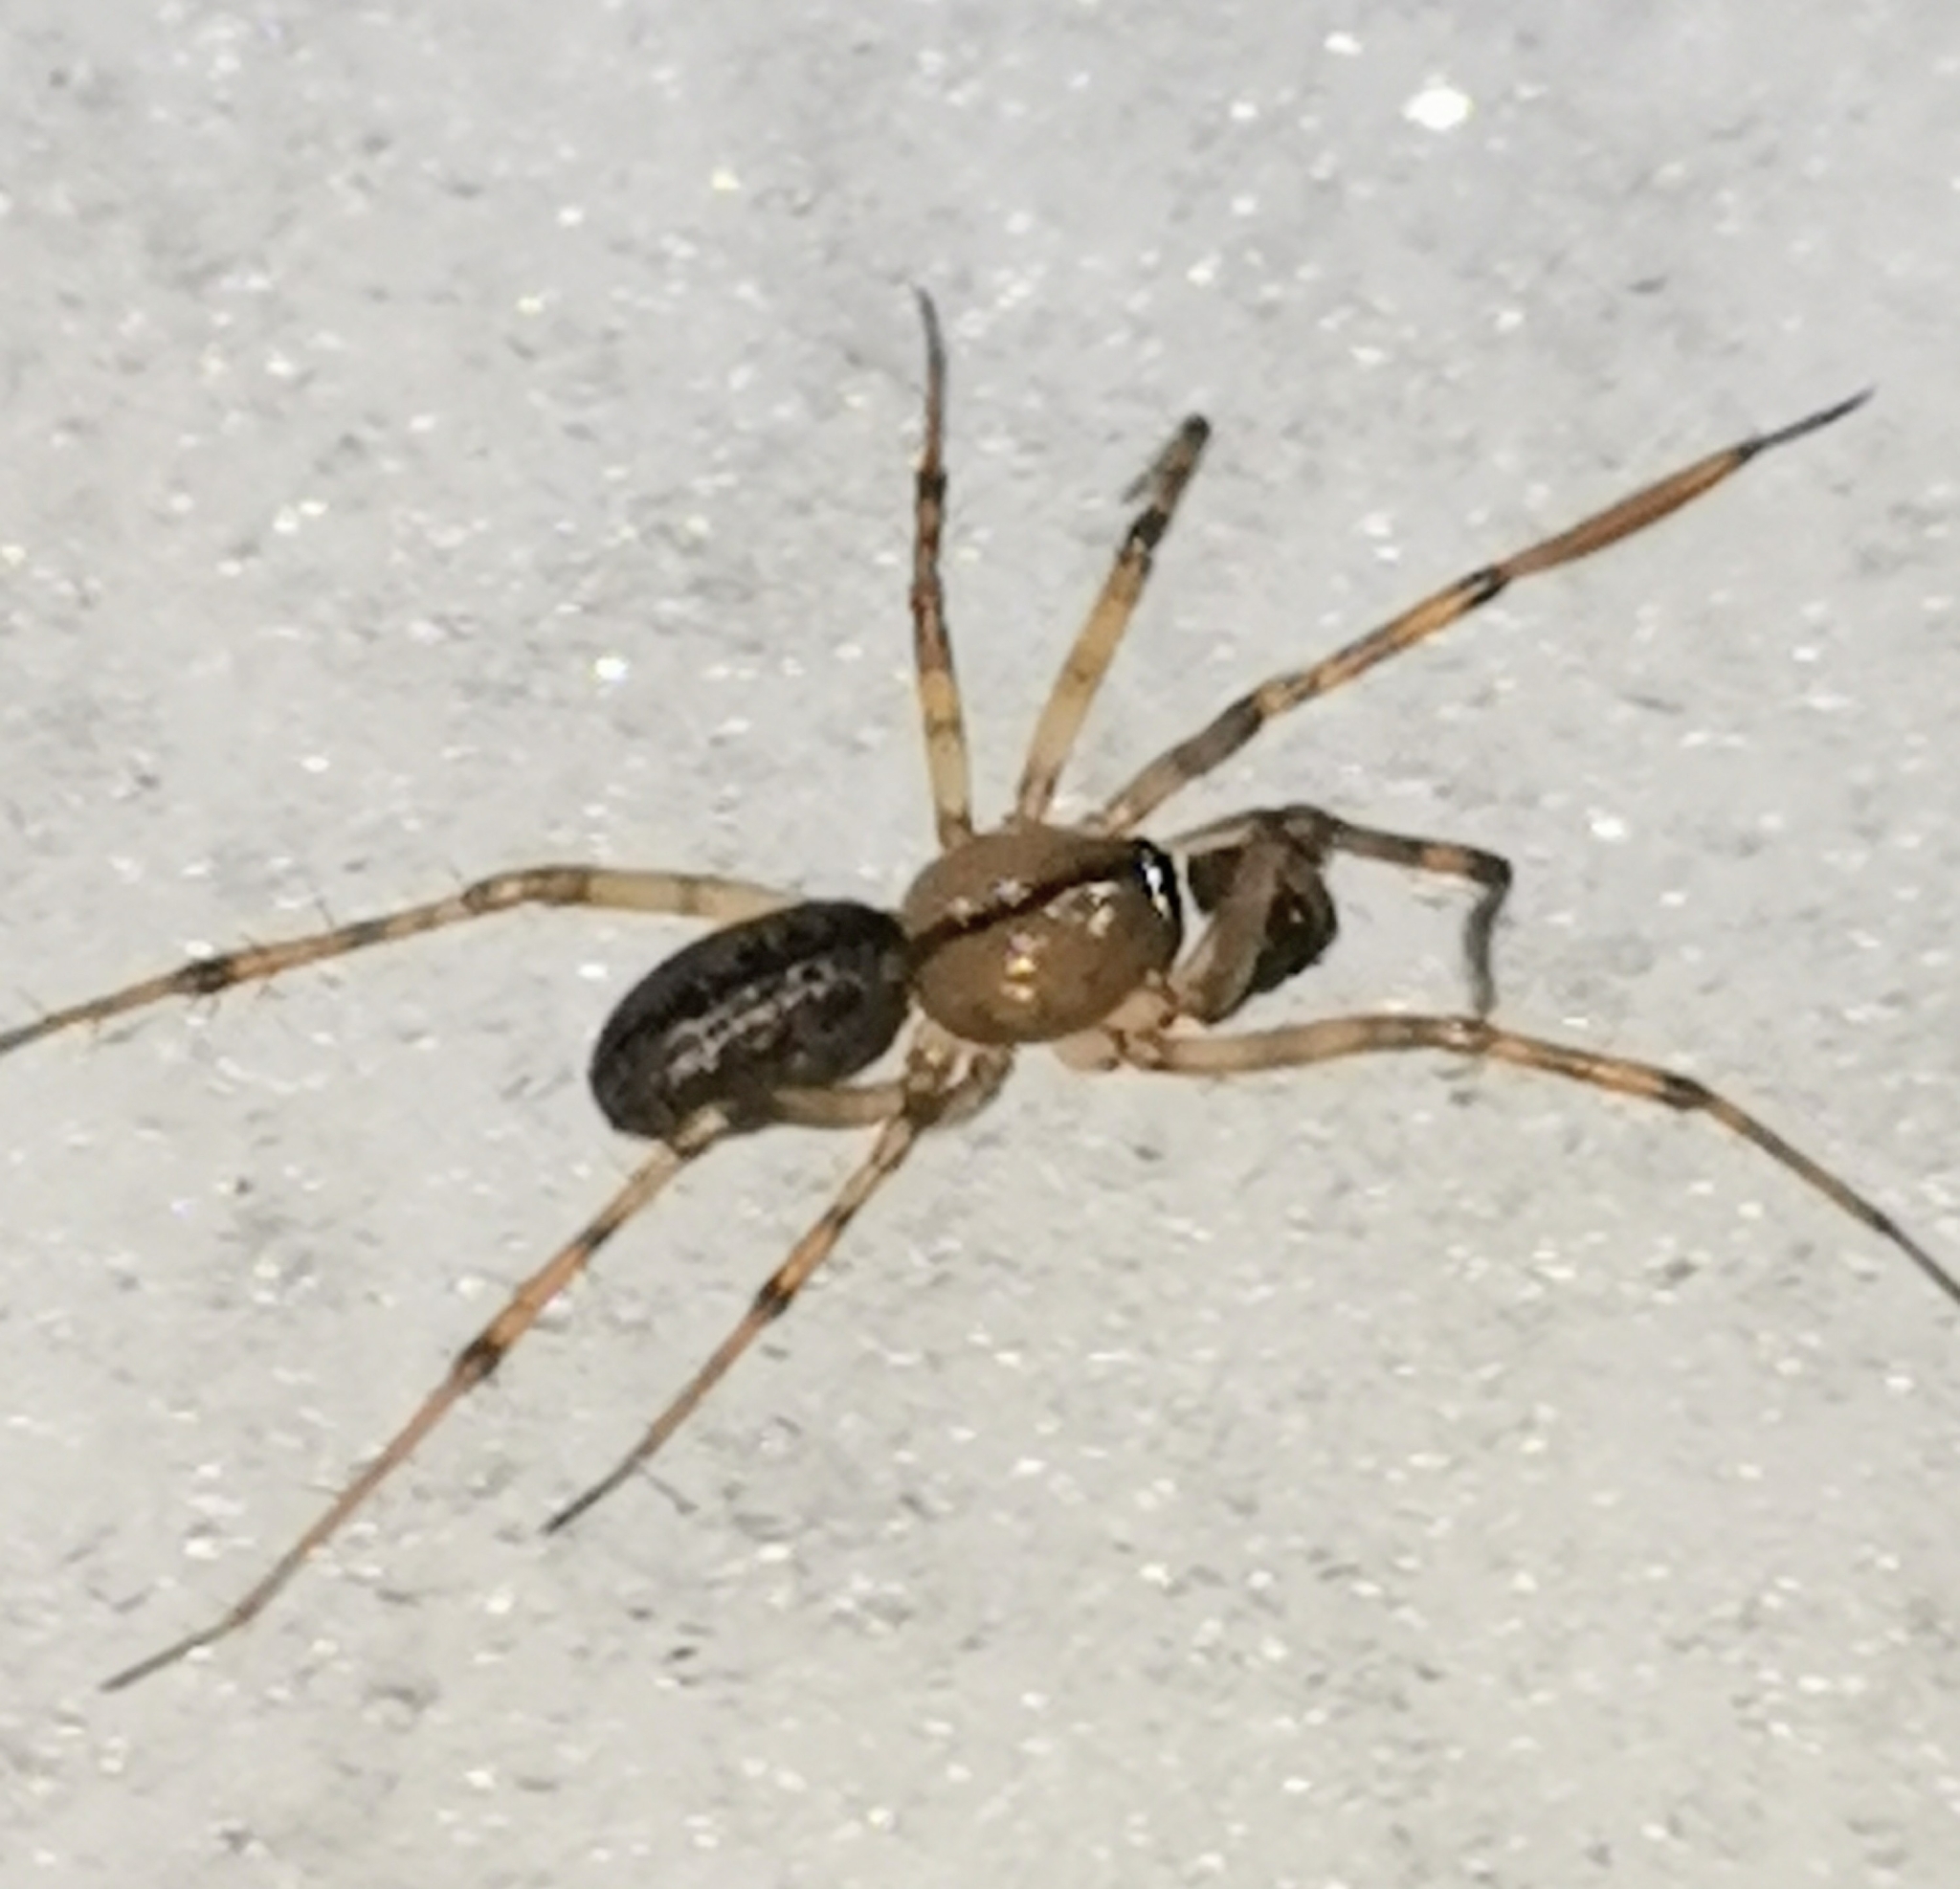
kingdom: Animalia
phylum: Arthropoda
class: Arachnida
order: Araneae
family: Linyphiidae
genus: Stemonyphantes
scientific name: Stemonyphantes lineatus
